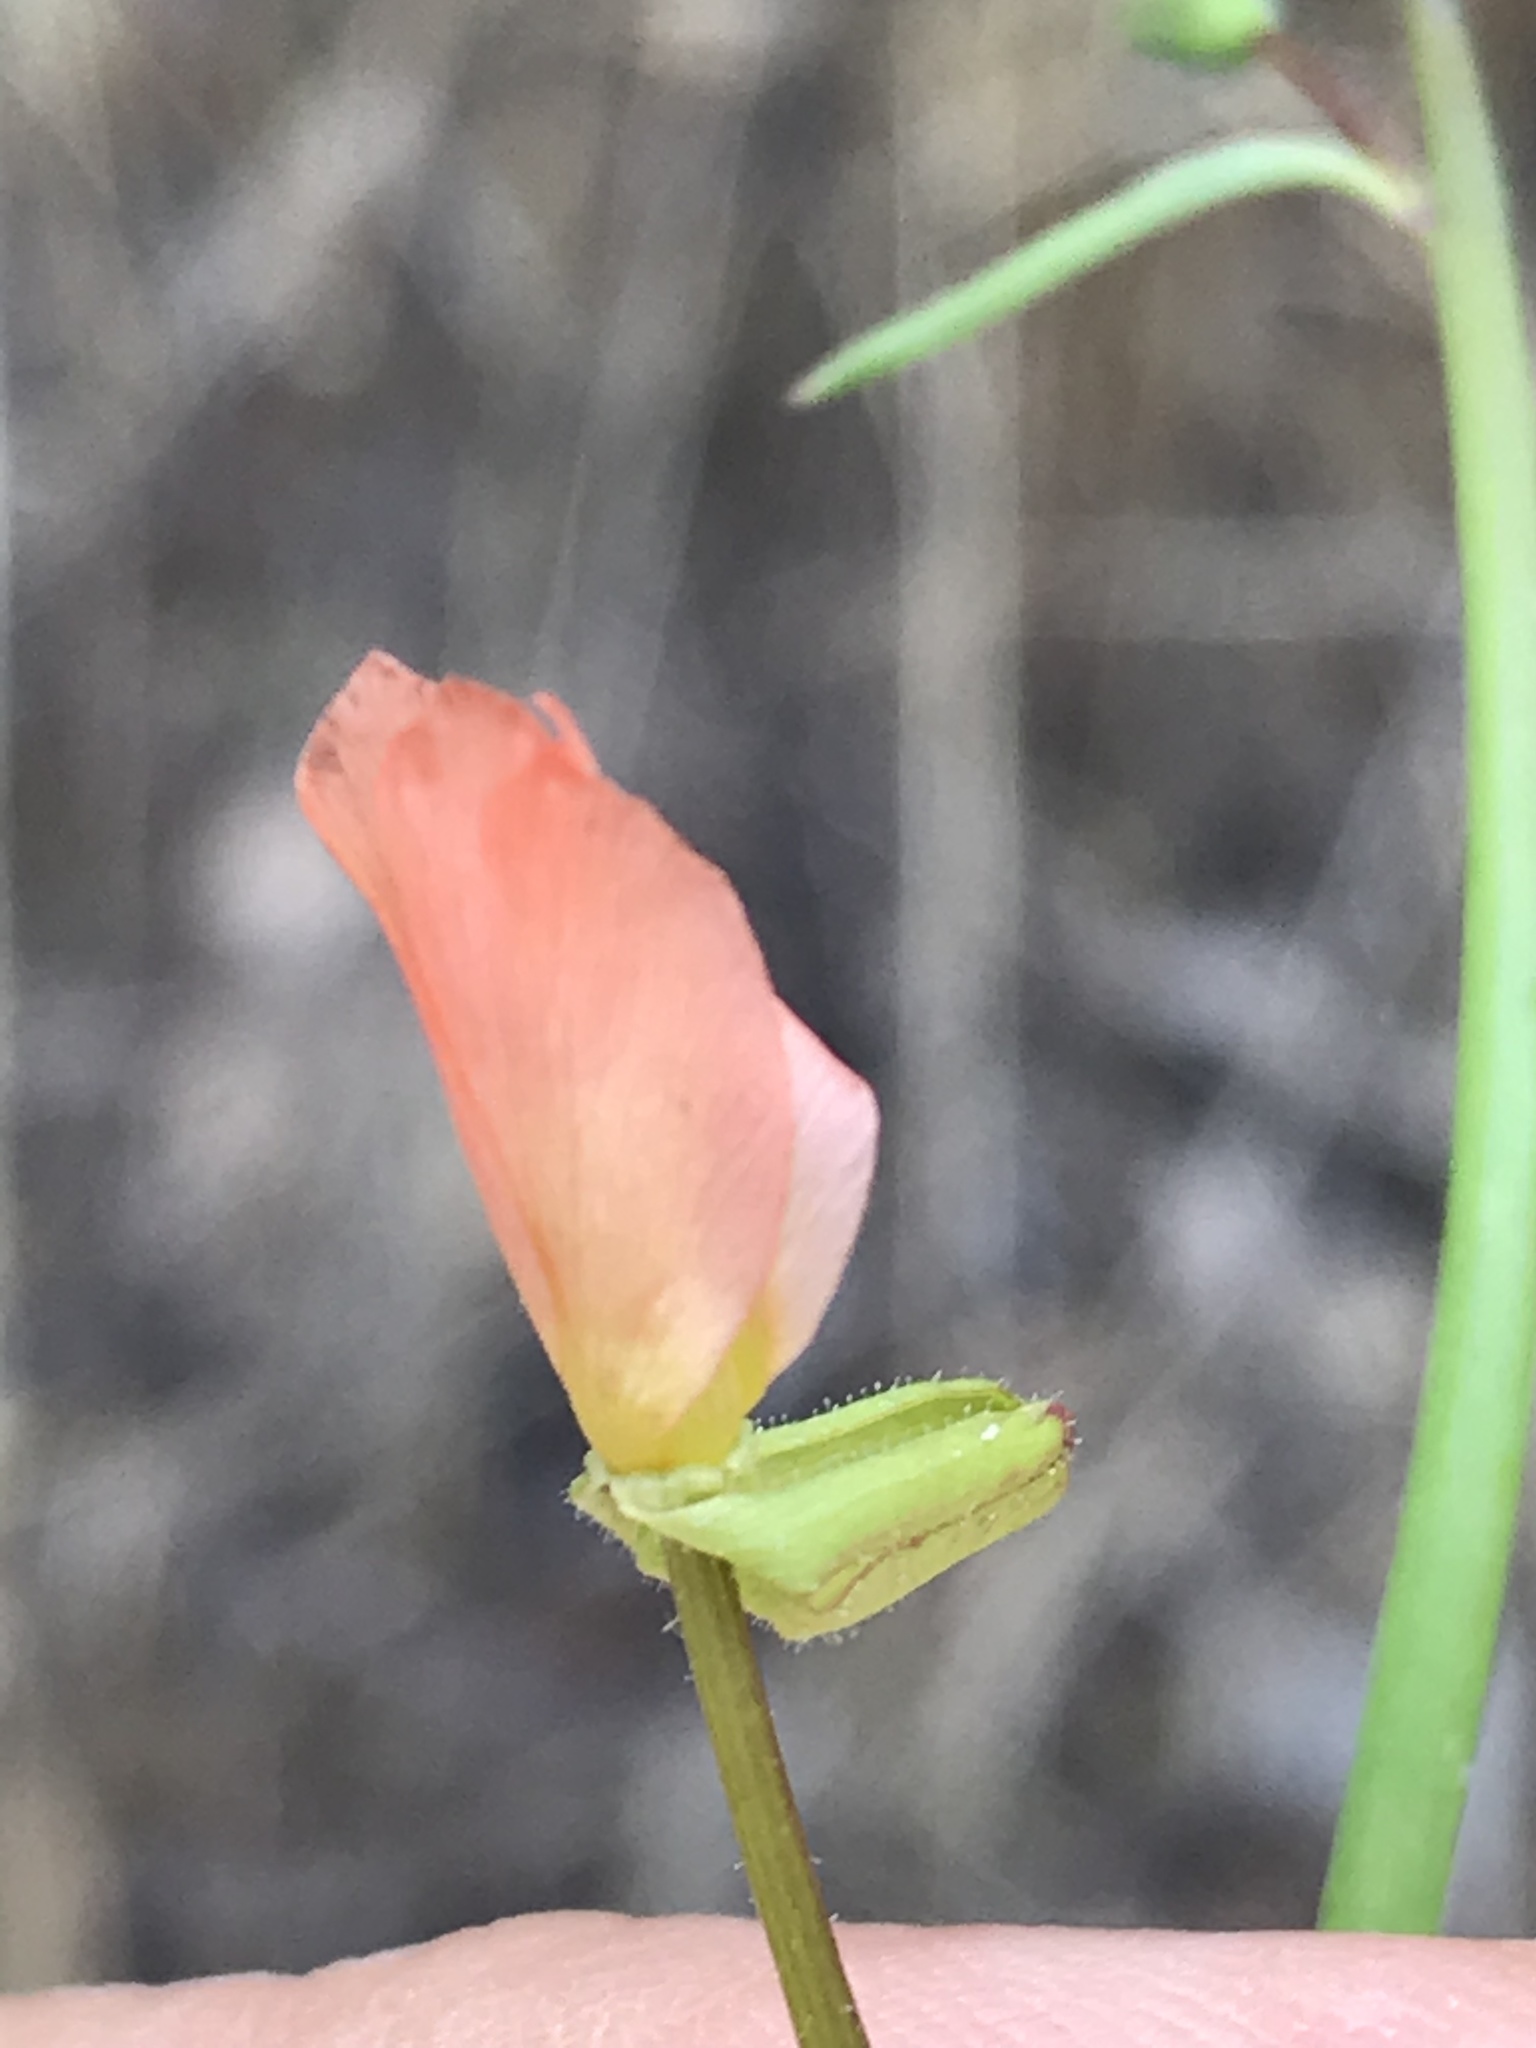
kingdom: Plantae
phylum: Tracheophyta
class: Magnoliopsida
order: Myrtales
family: Onagraceae
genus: Eulobus
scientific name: Eulobus californicus
